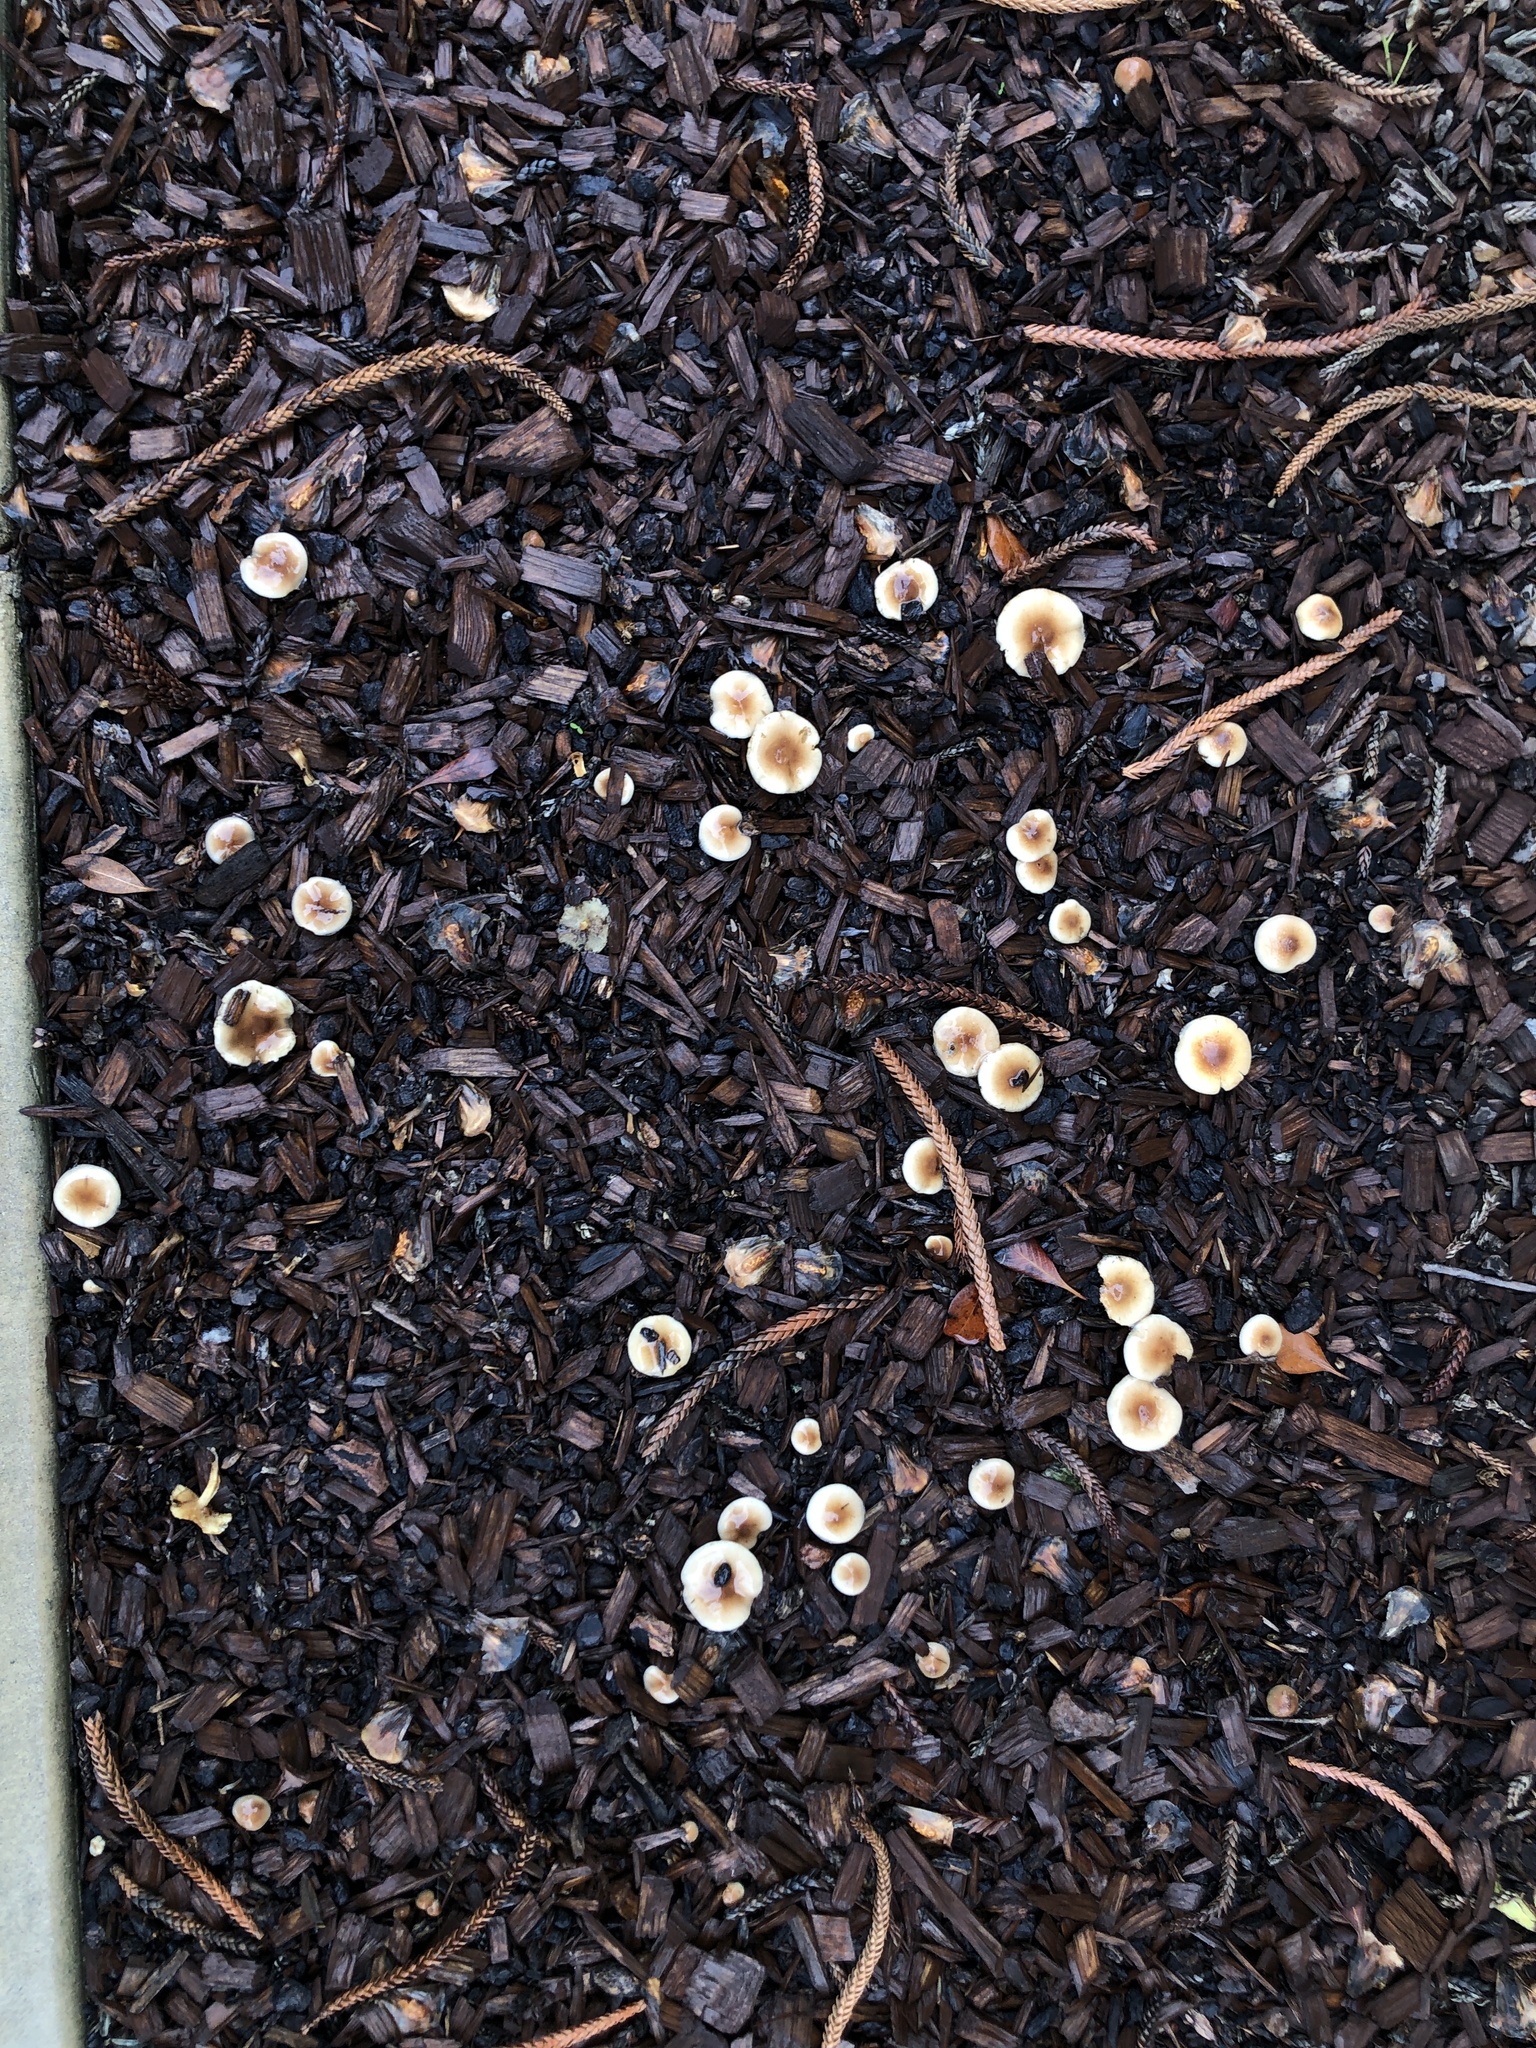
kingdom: Fungi
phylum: Basidiomycota
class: Agaricomycetes
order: Agaricales
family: Strophariaceae
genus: Pholiota
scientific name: Pholiota spumosa
